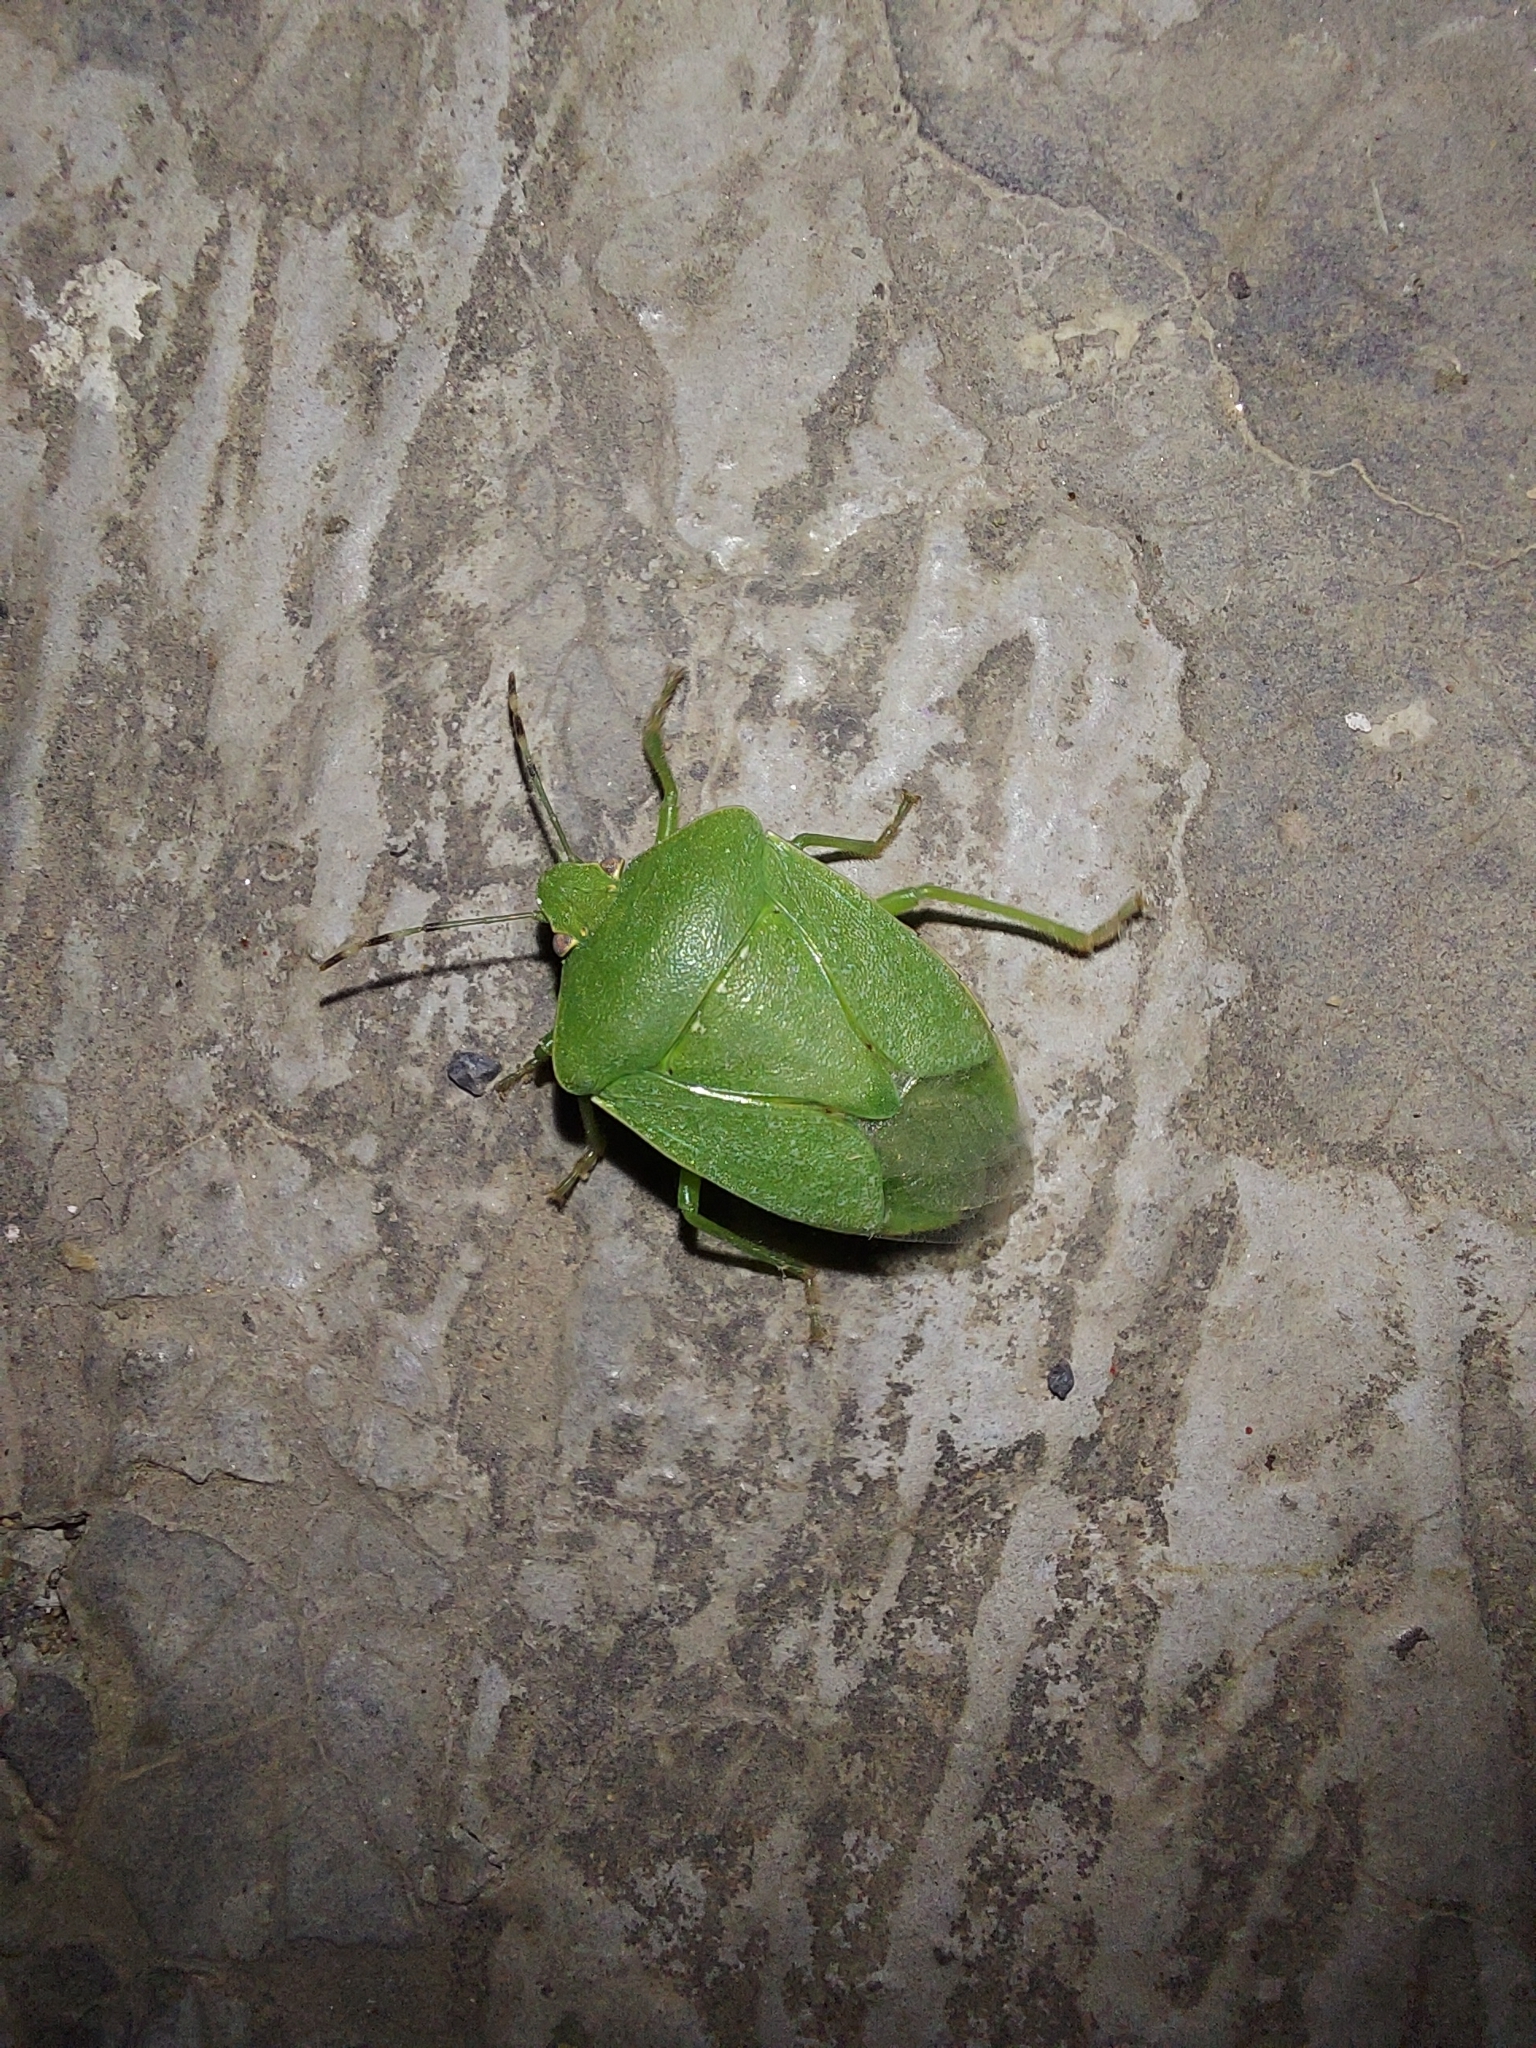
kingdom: Animalia
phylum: Arthropoda
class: Insecta
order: Hemiptera
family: Pentatomidae
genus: Nezara
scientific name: Nezara antennata
